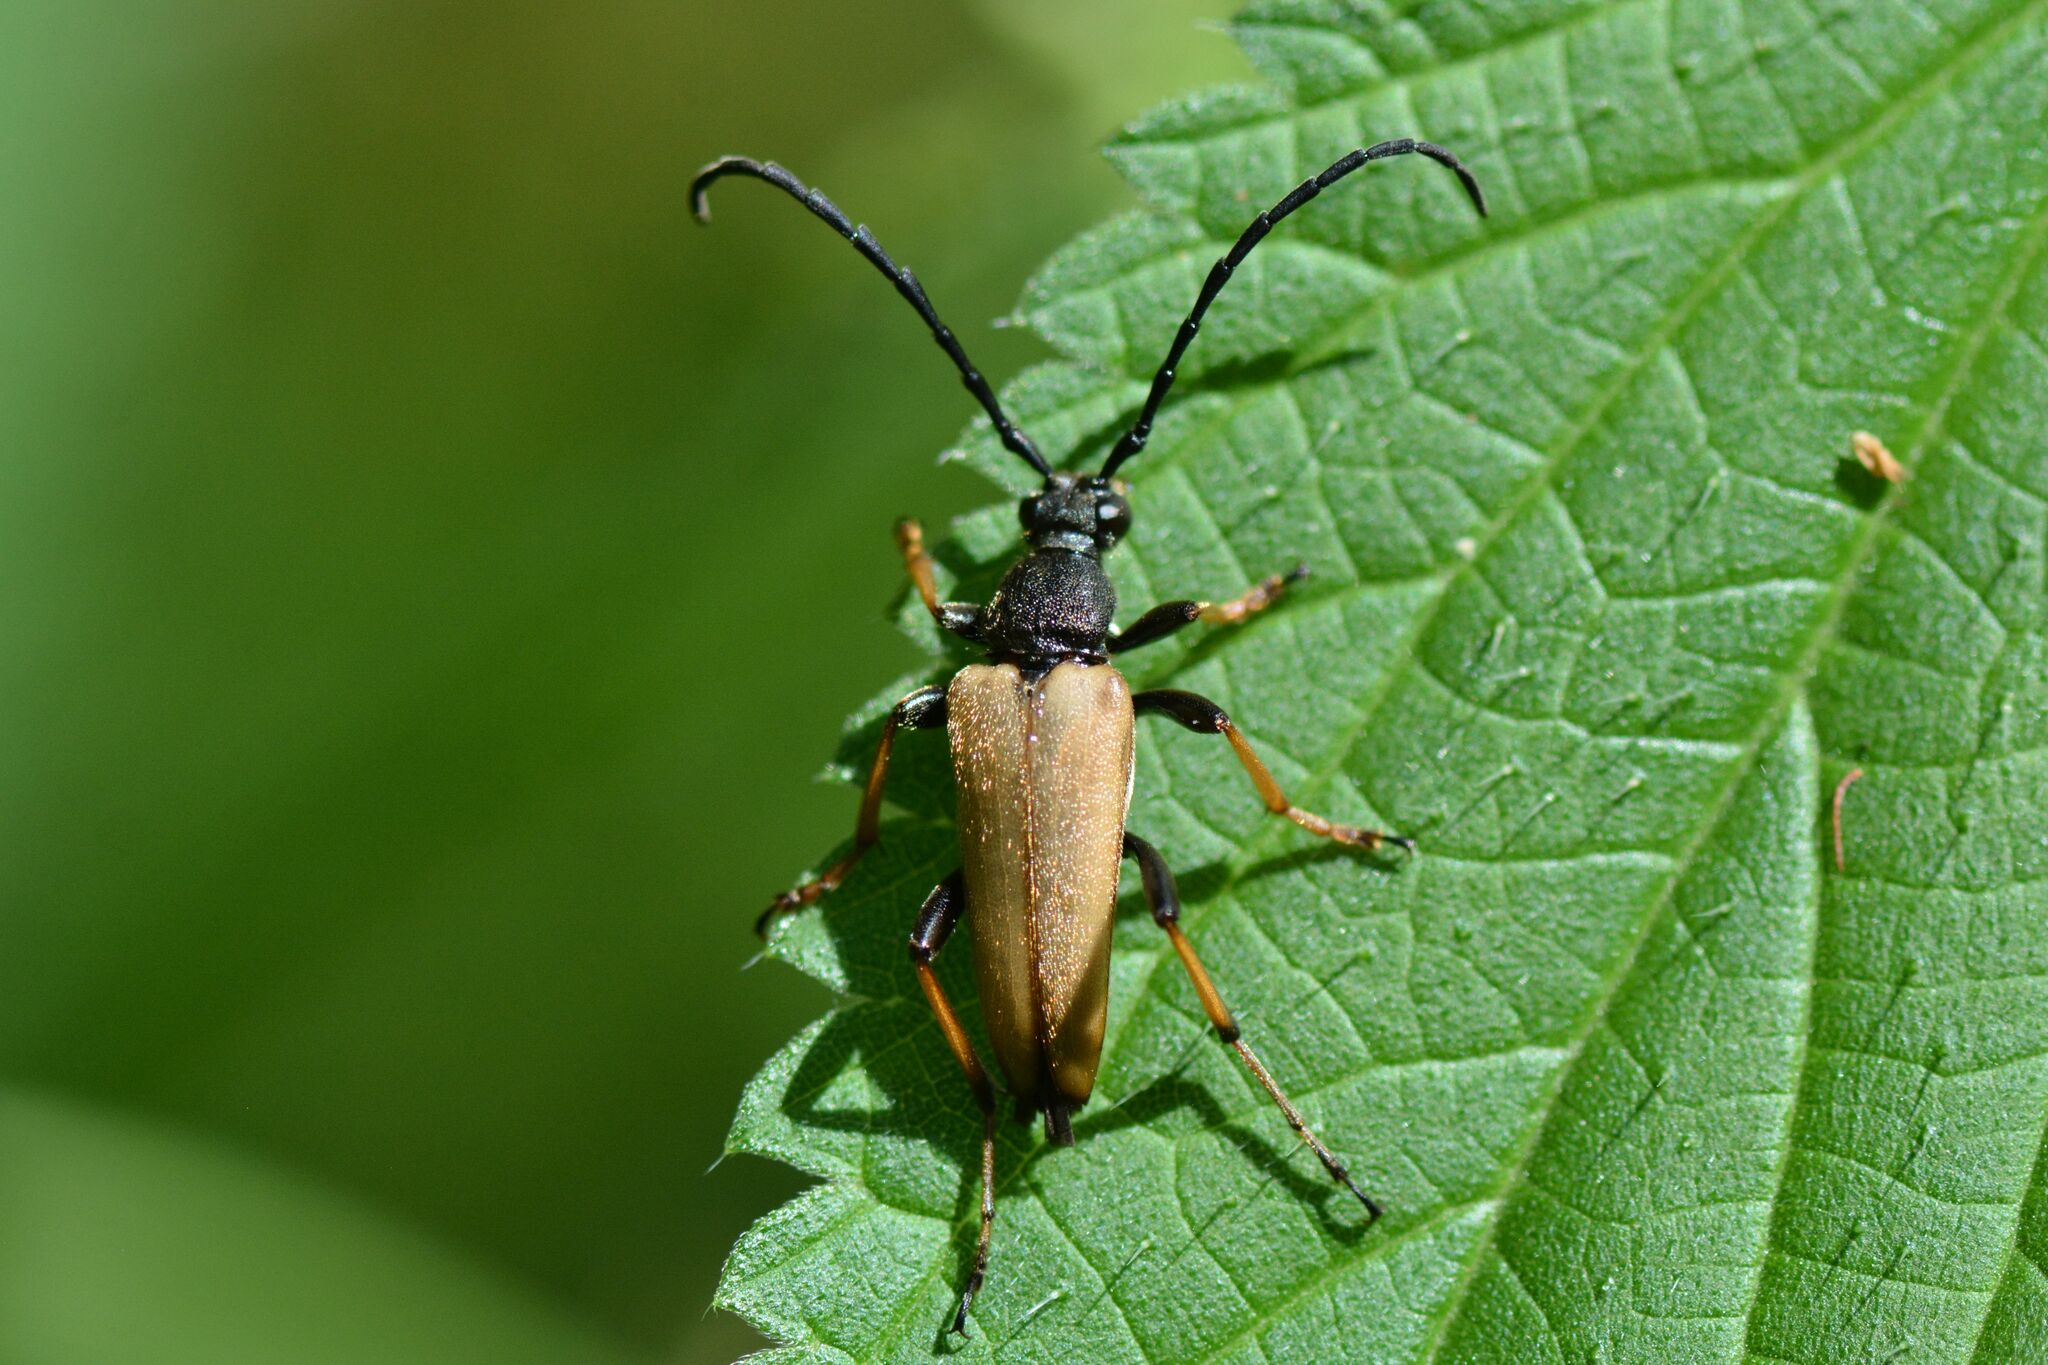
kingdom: Animalia
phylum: Arthropoda
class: Insecta
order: Coleoptera
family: Cerambycidae
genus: Stictoleptura
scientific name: Stictoleptura rubra
